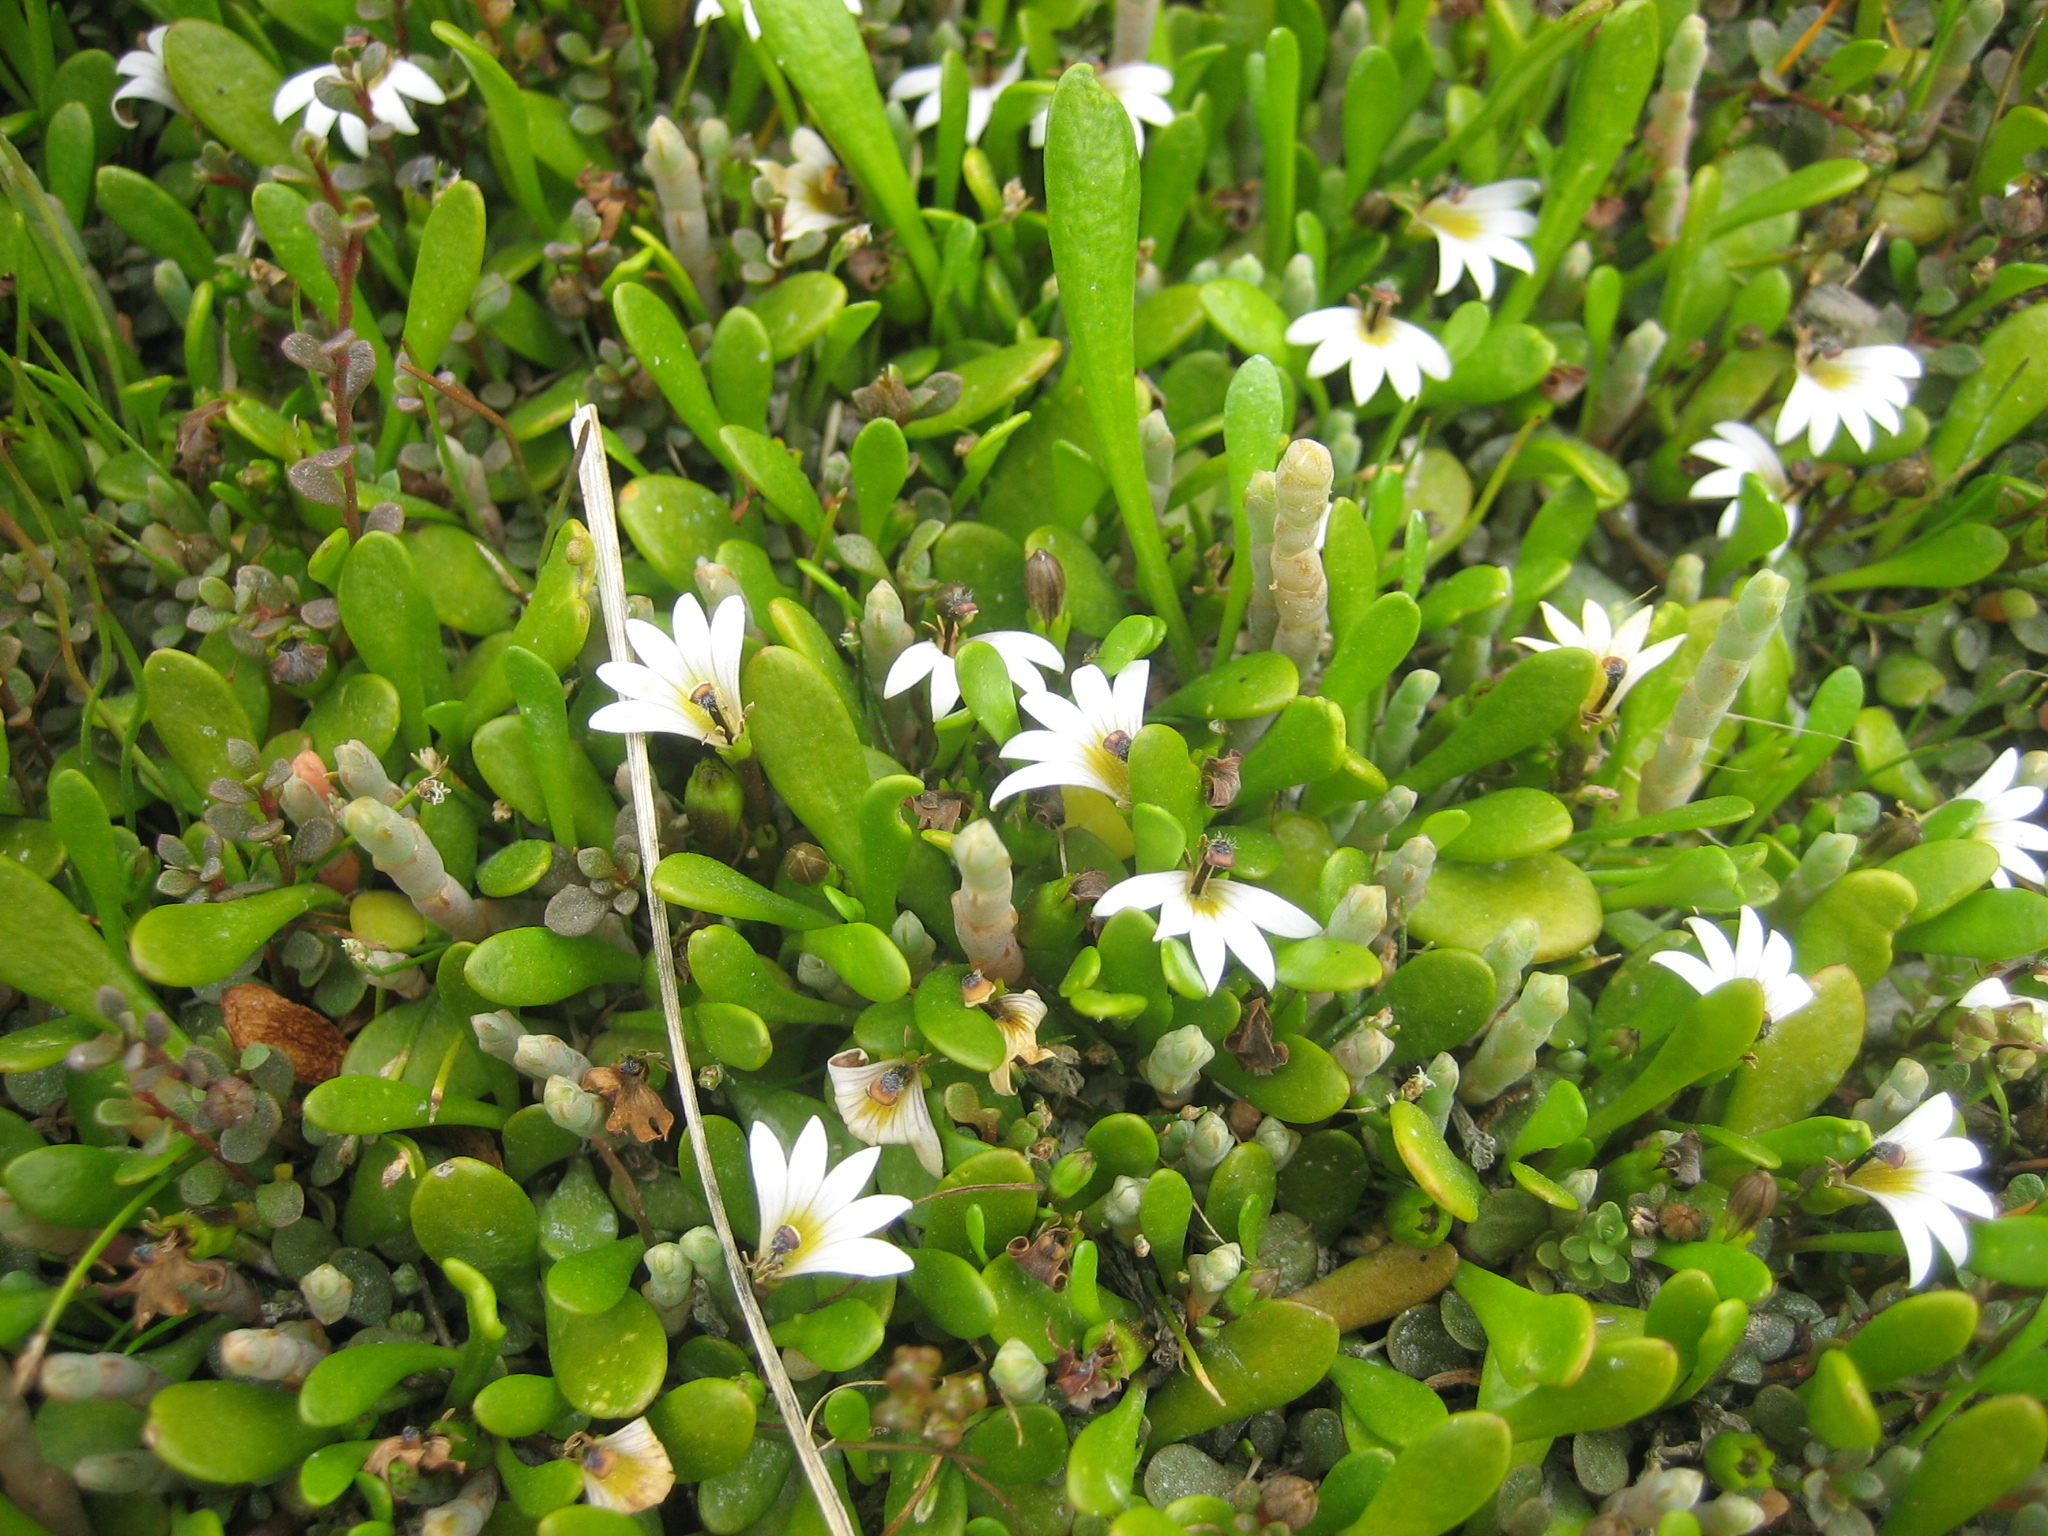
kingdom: Plantae
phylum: Tracheophyta
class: Magnoliopsida
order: Asterales
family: Goodeniaceae
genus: Goodenia
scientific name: Goodenia radicans
